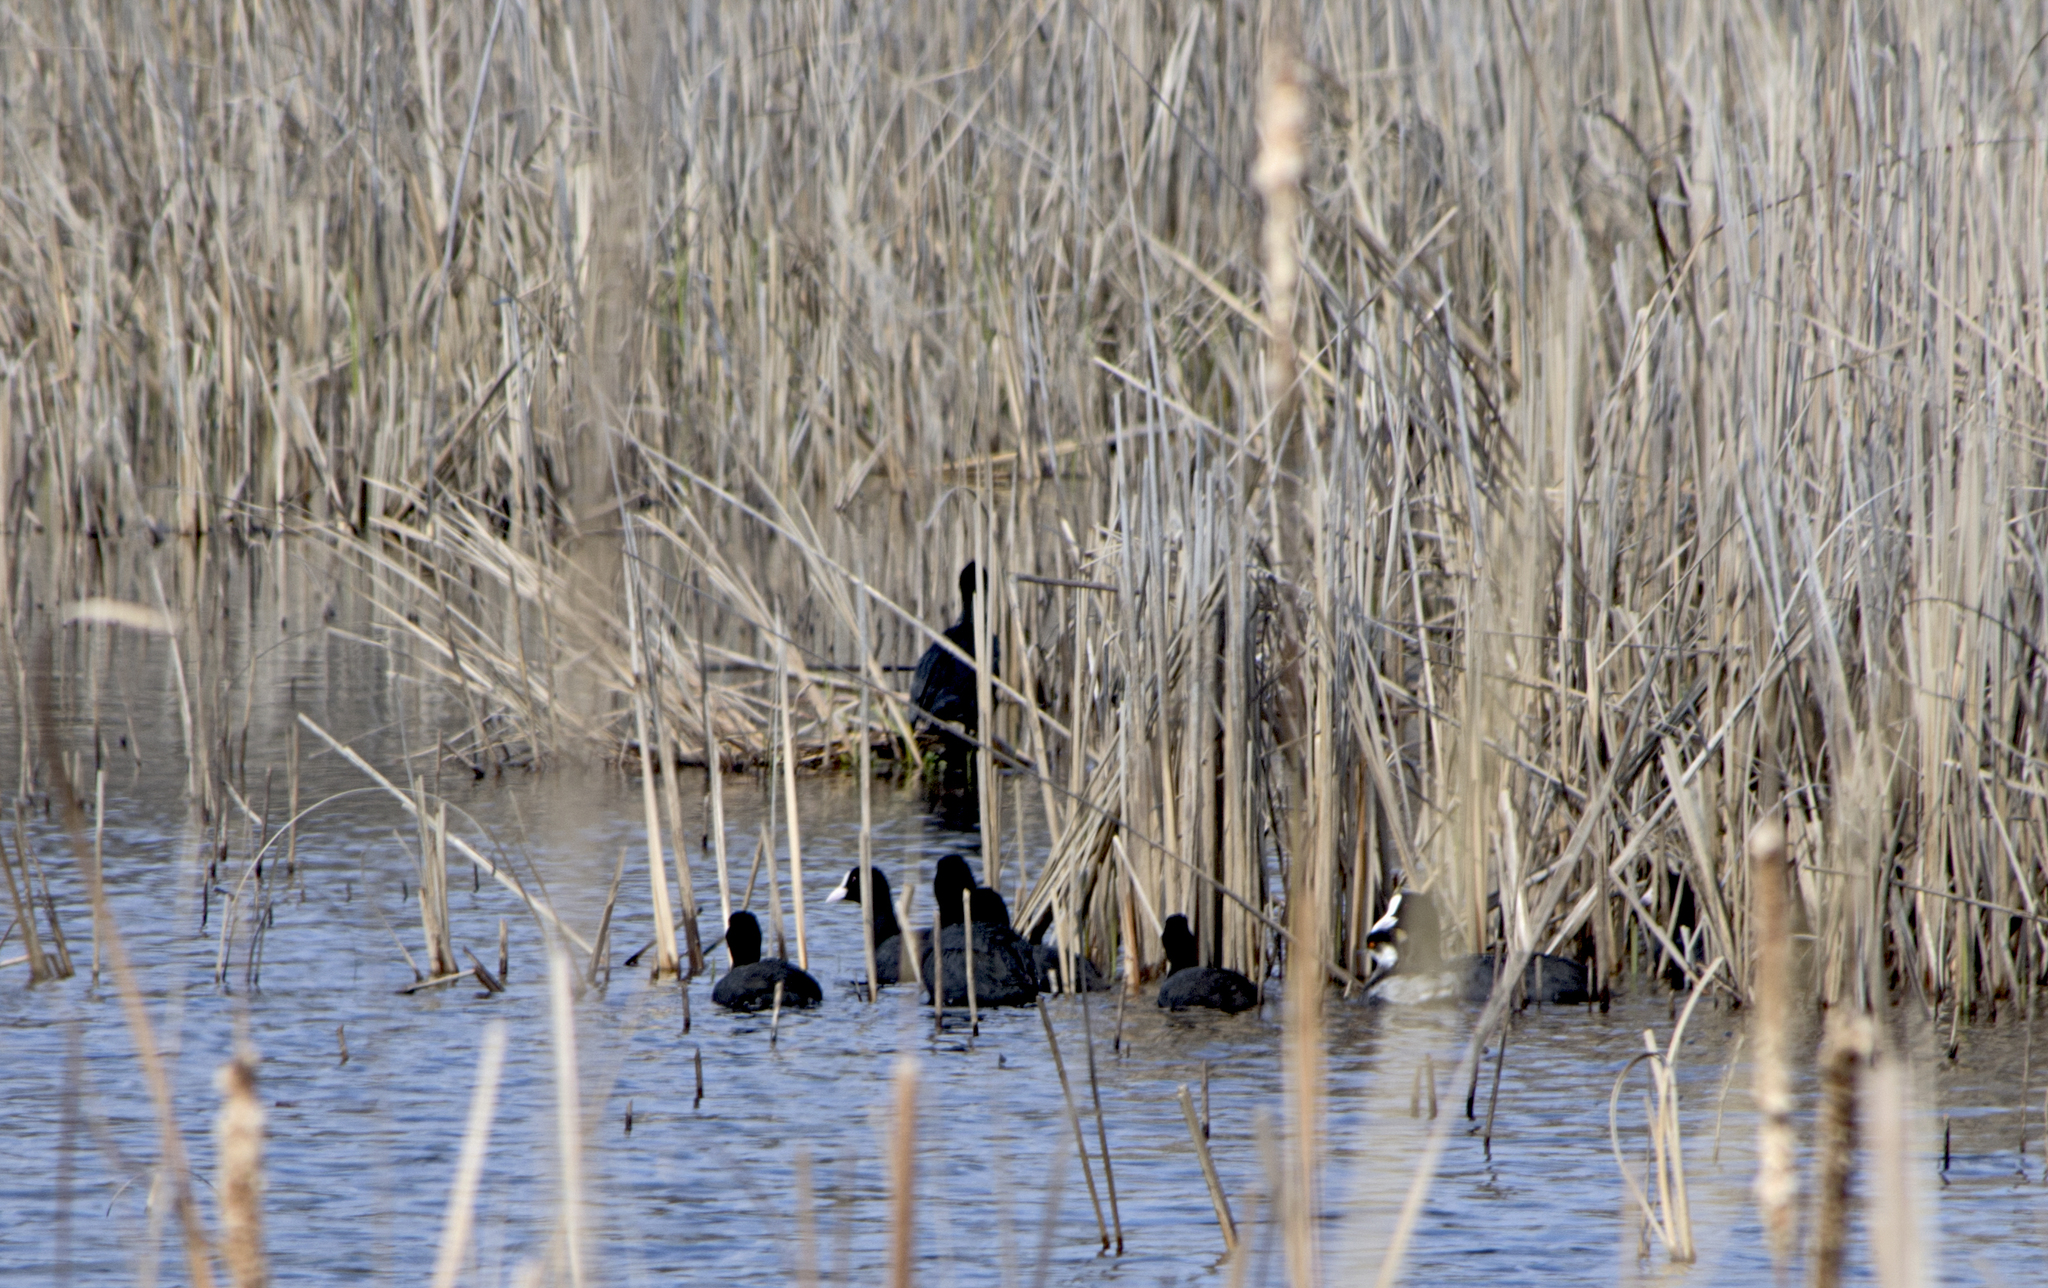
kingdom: Animalia
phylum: Chordata
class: Aves
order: Gruiformes
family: Rallidae
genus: Fulica
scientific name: Fulica atra
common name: Eurasian coot
